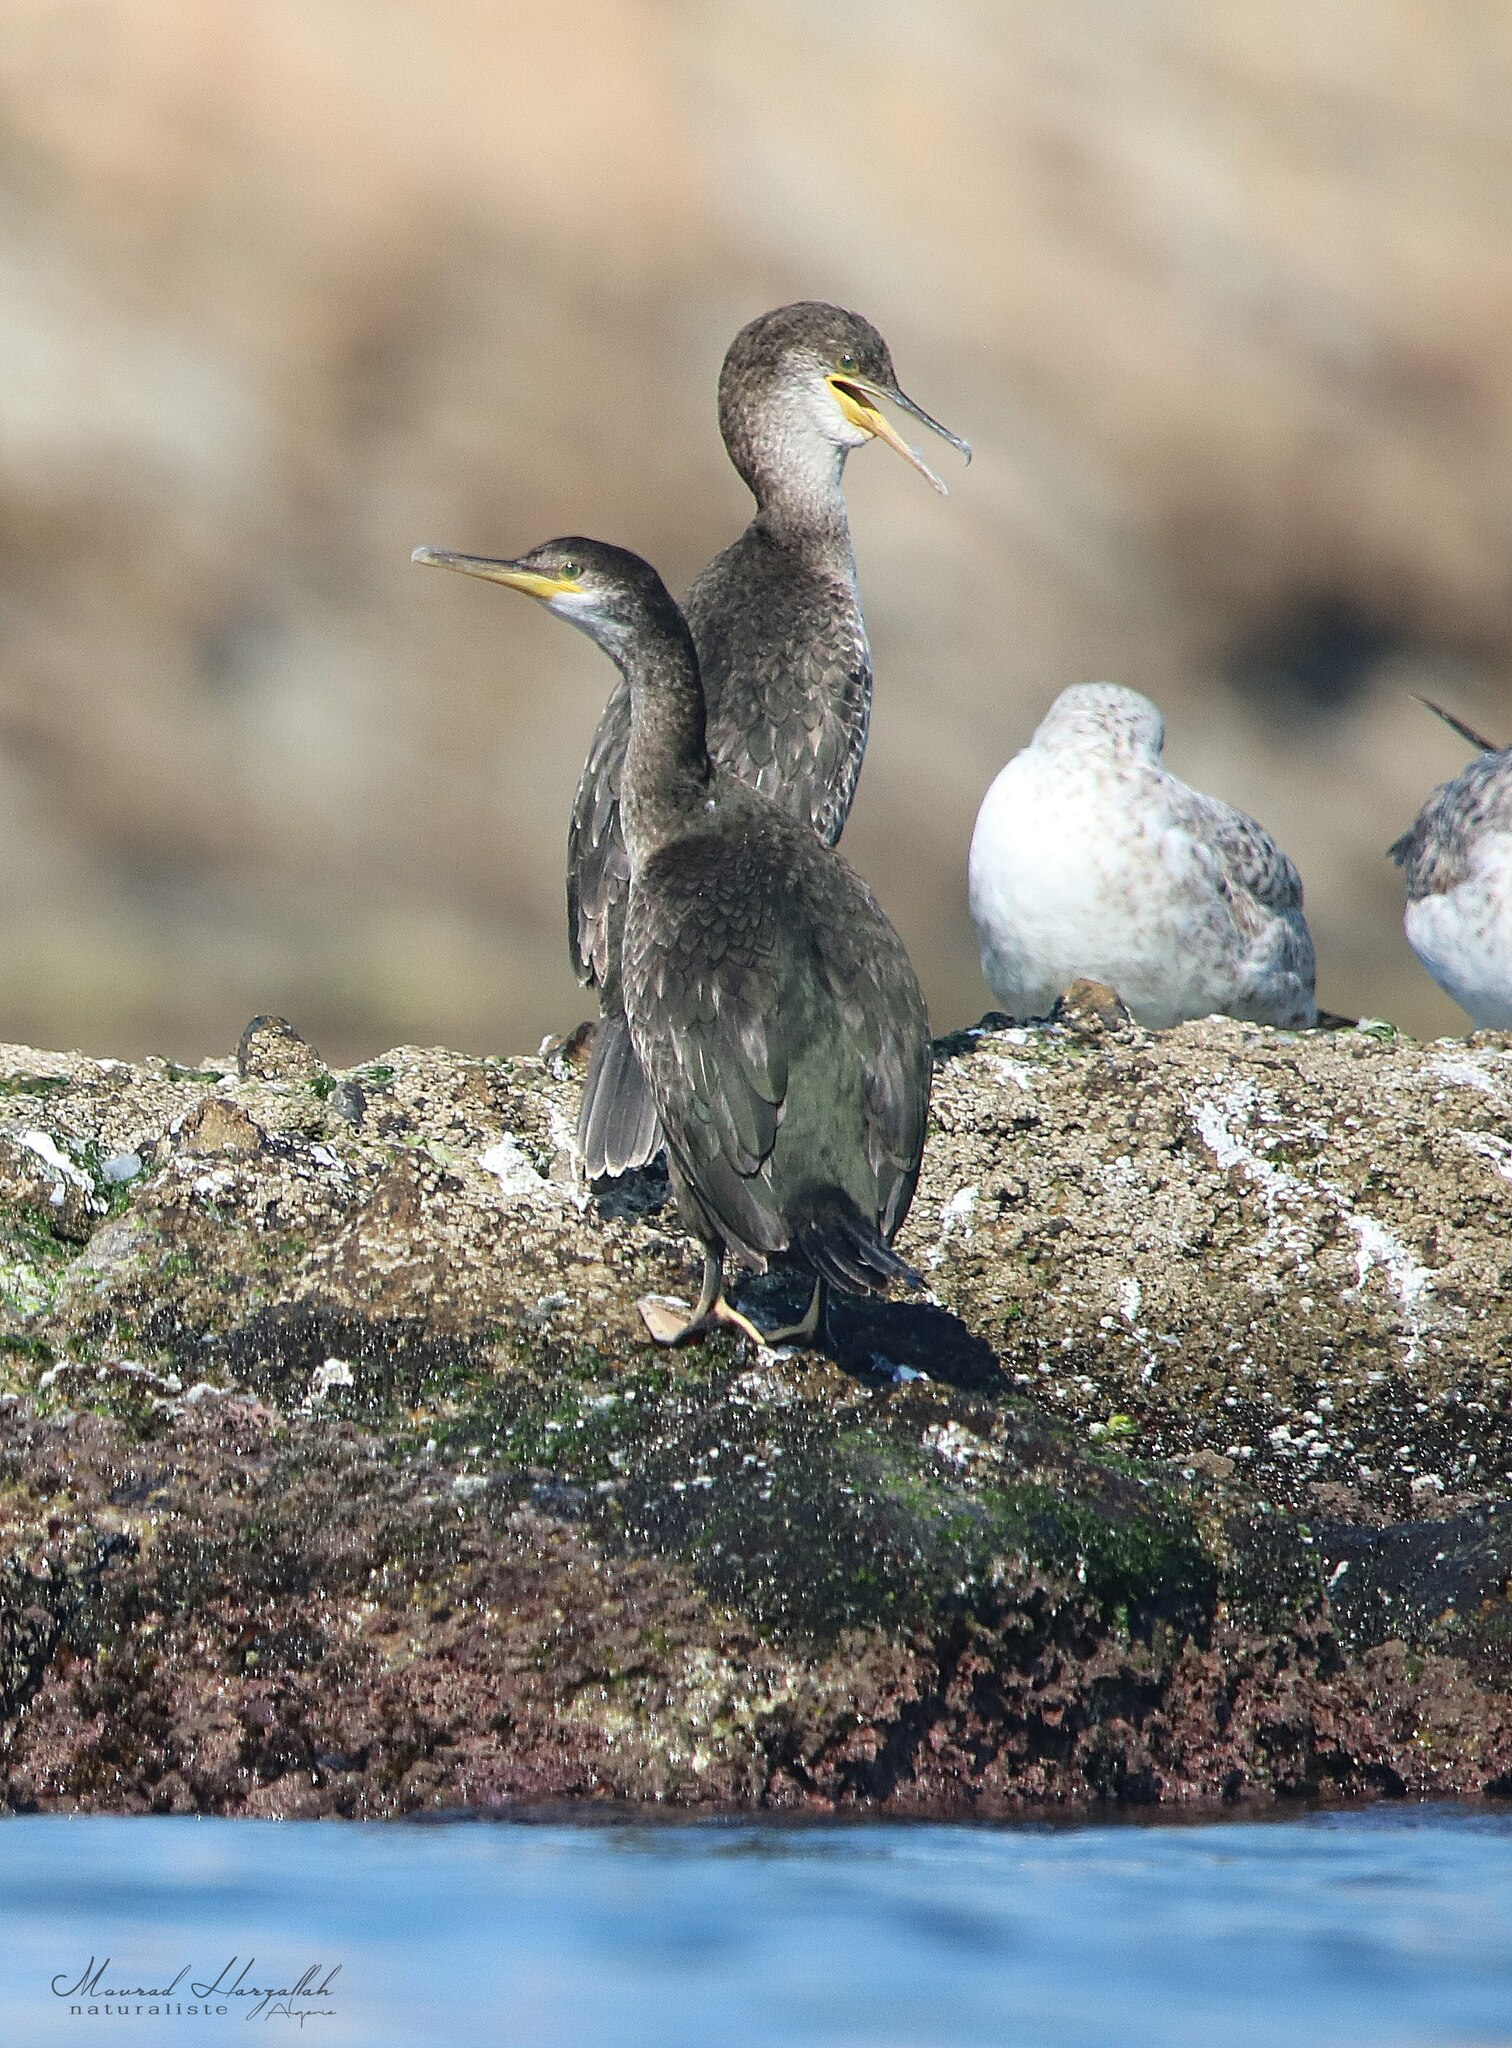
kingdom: Animalia
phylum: Chordata
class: Aves
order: Suliformes
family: Phalacrocoracidae
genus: Phalacrocorax
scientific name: Phalacrocorax aristotelis
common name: European shag
